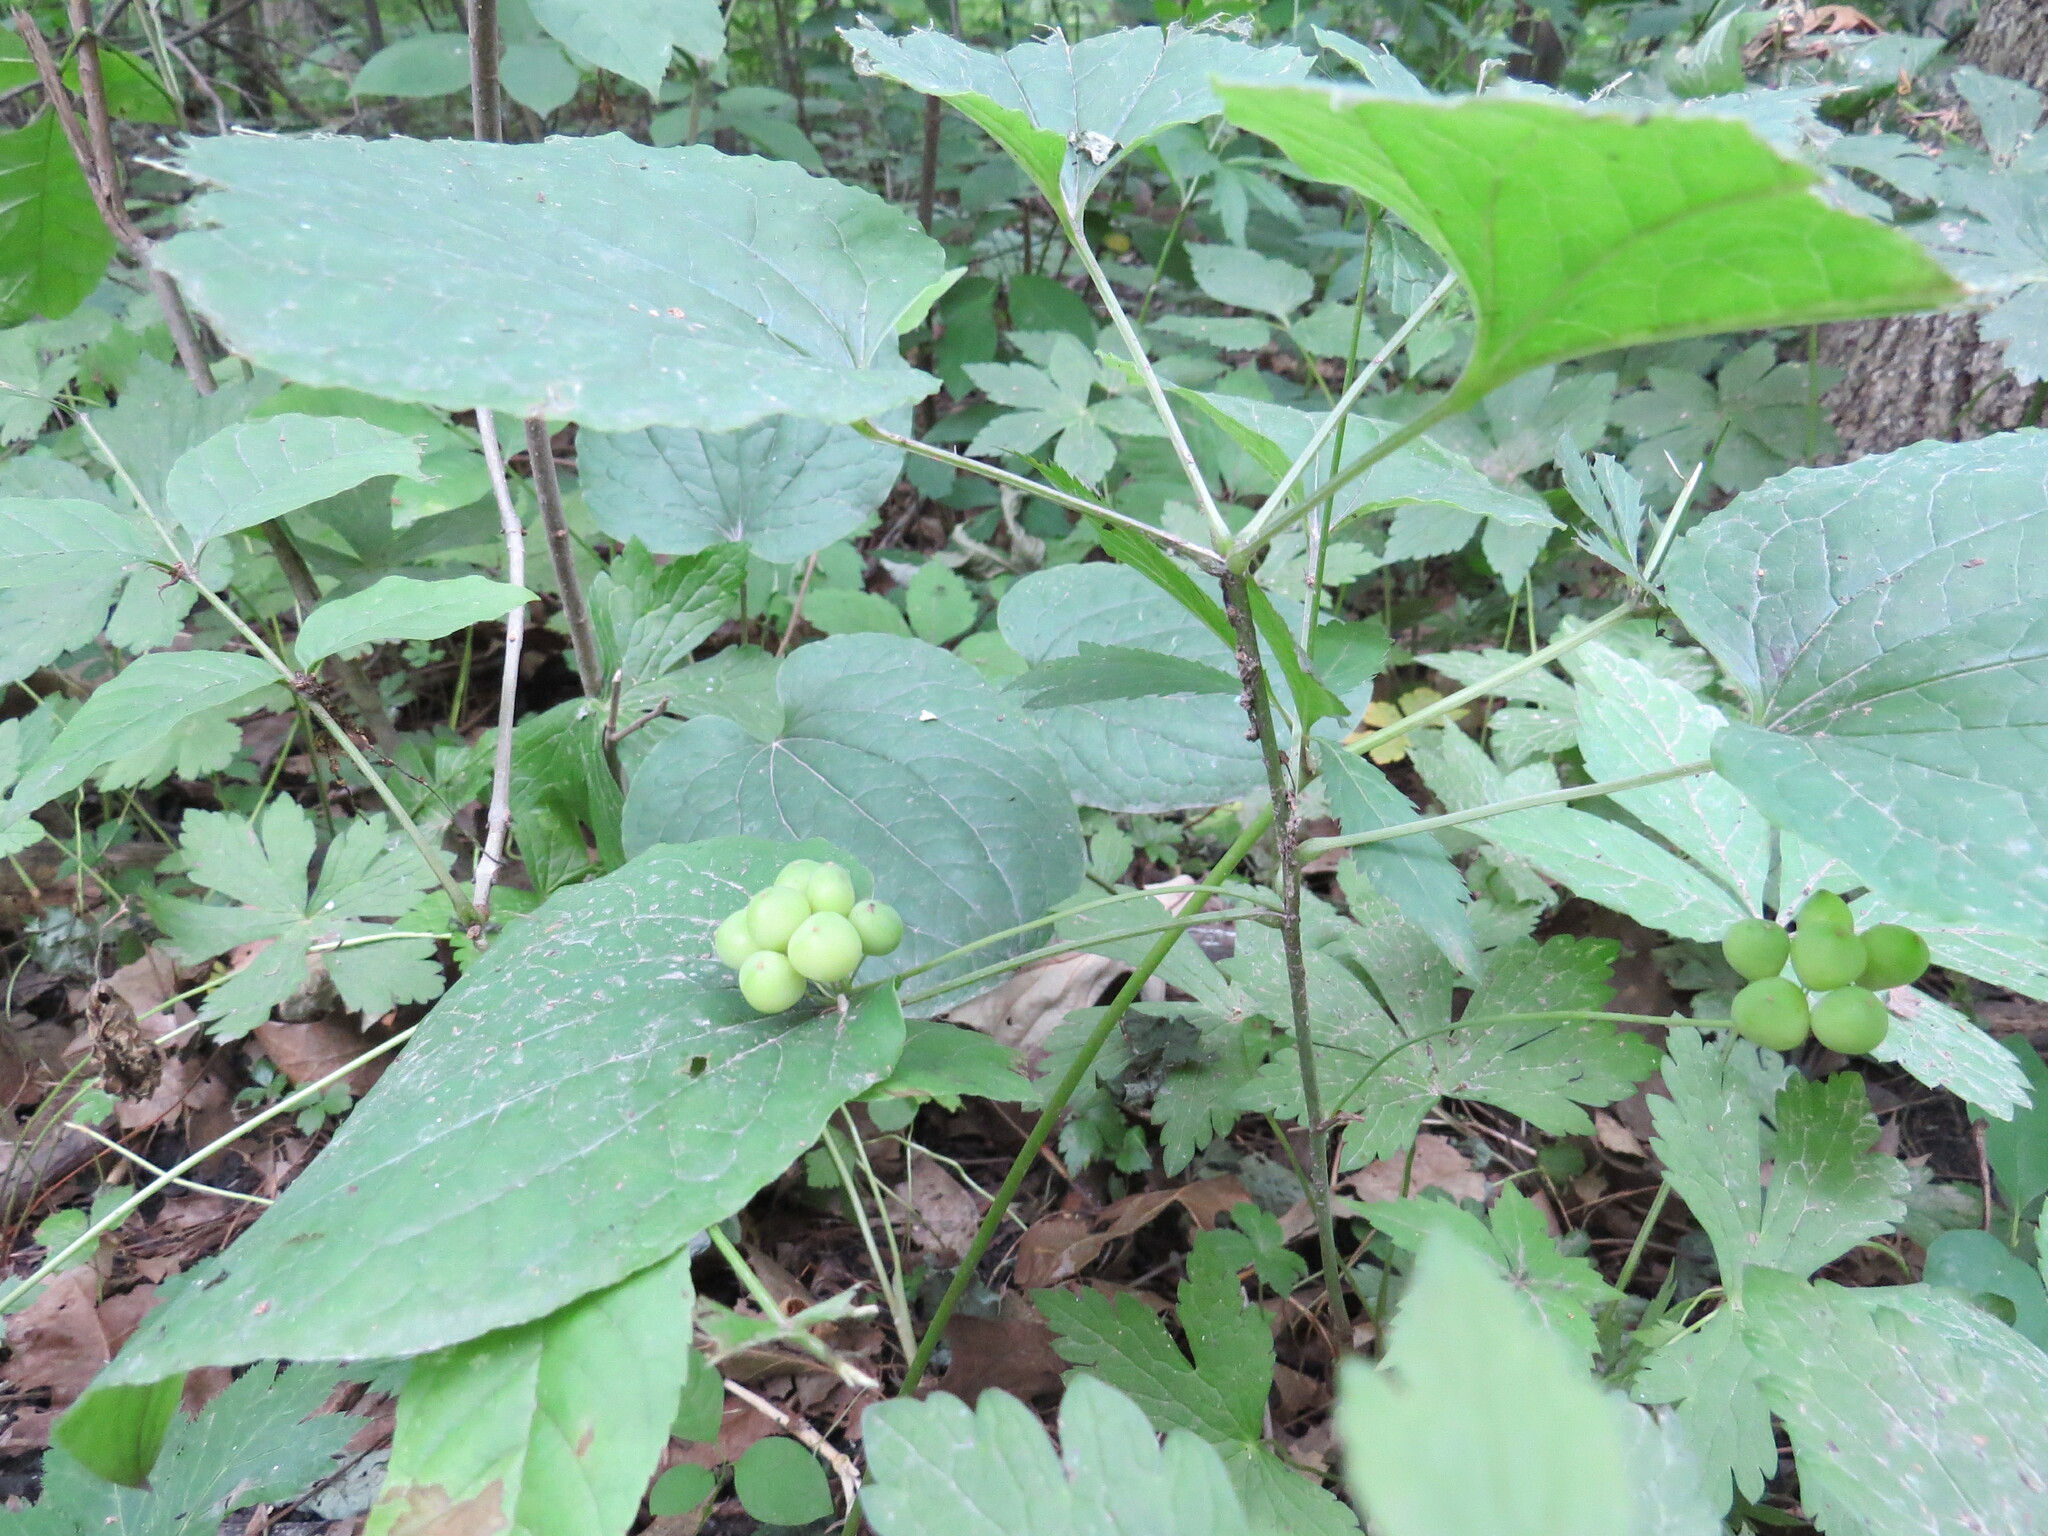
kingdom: Plantae
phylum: Tracheophyta
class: Liliopsida
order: Liliales
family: Smilacaceae
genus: Smilax
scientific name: Smilax ecirrhata
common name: Upright carrionflower
